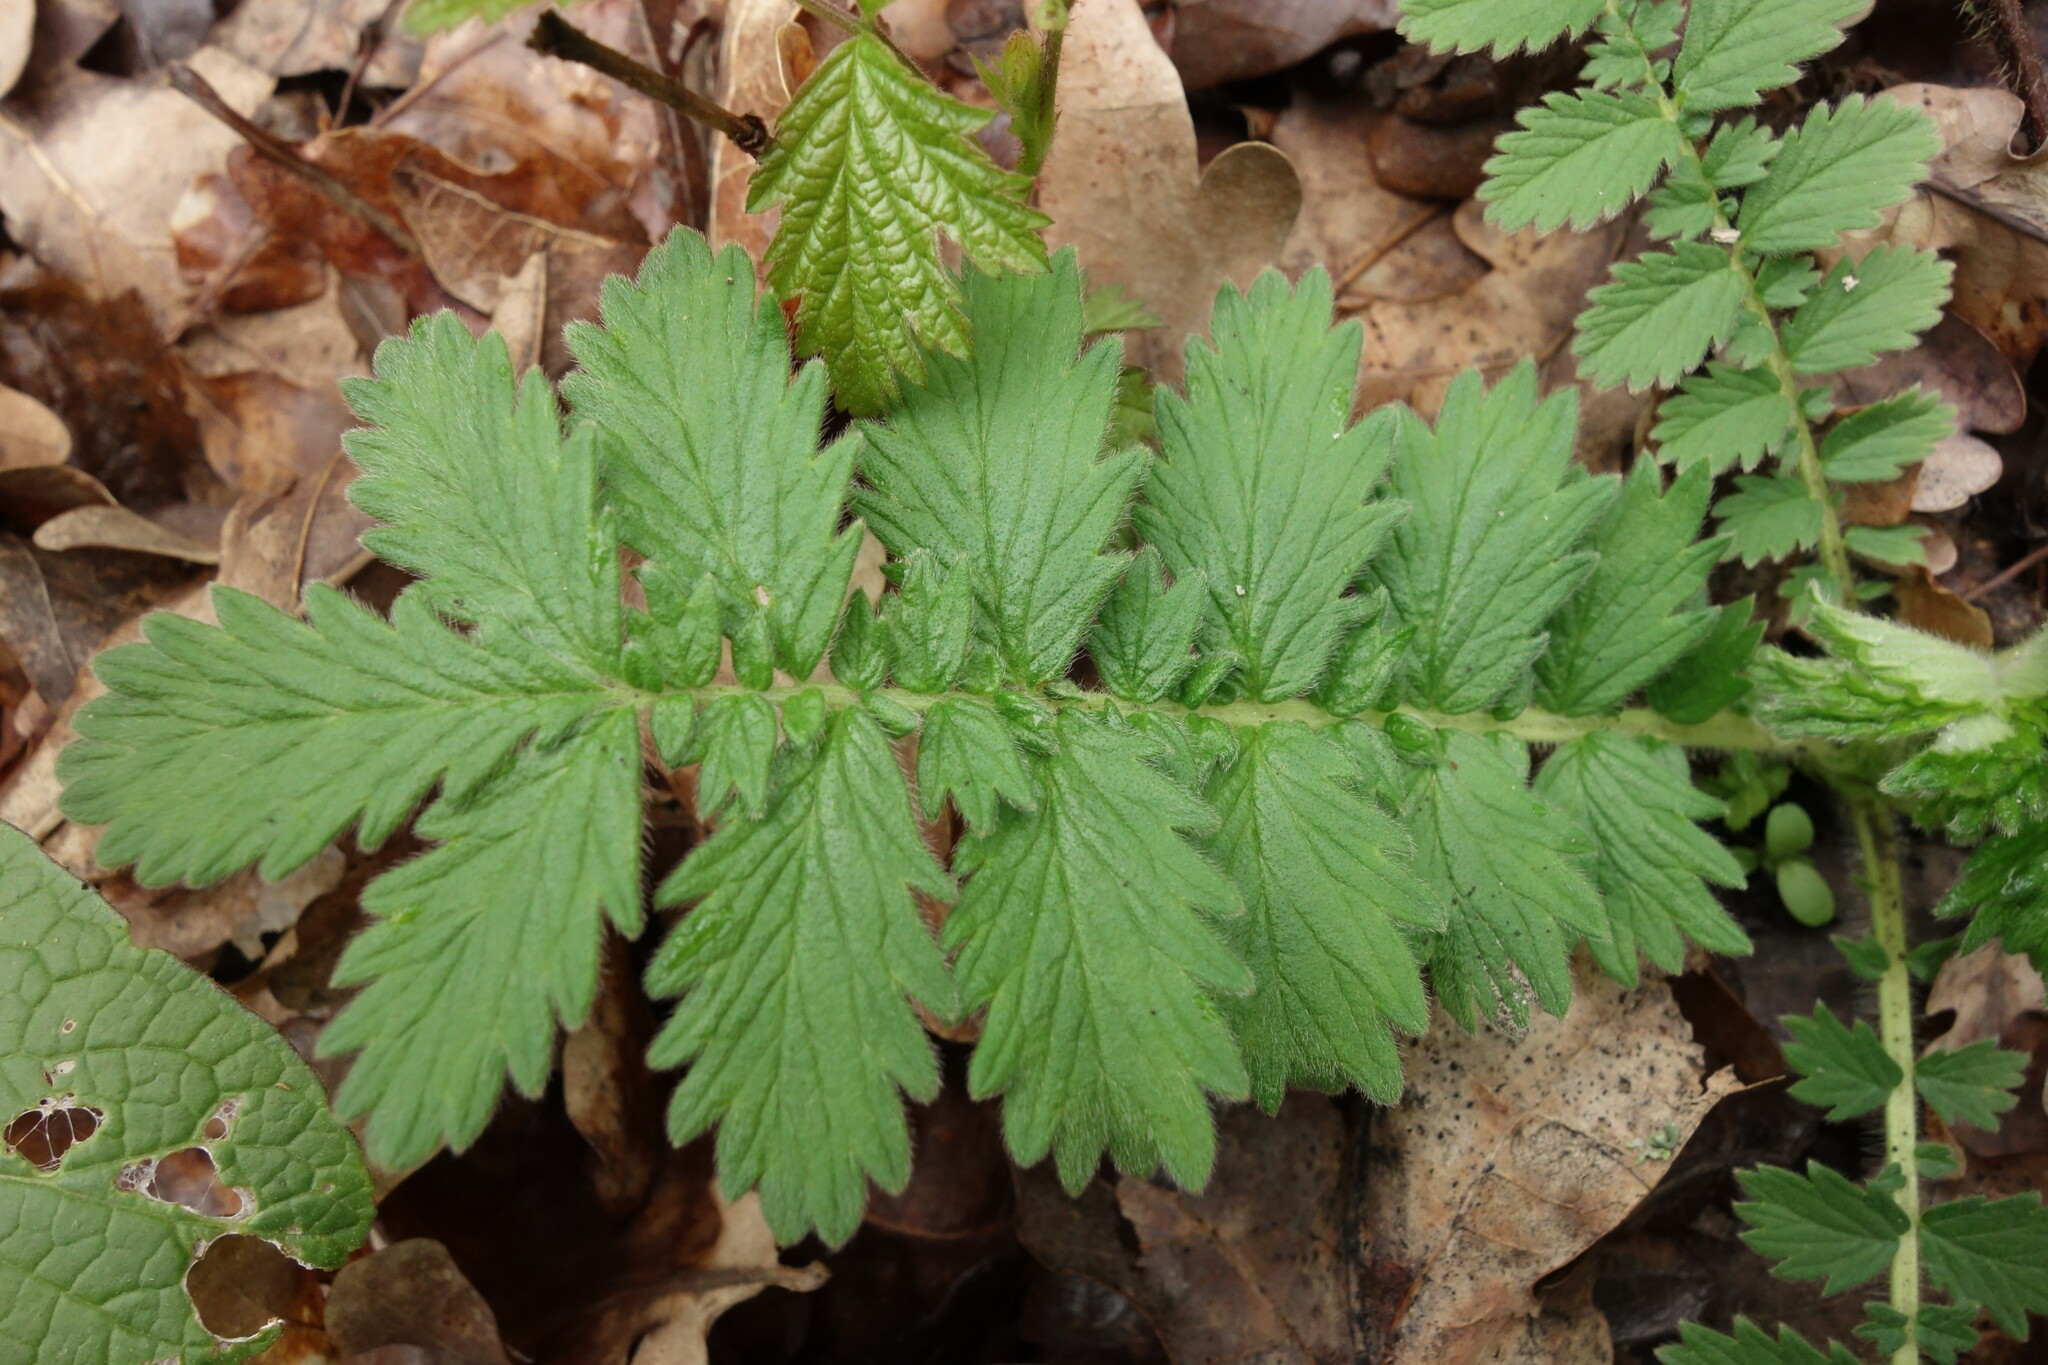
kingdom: Plantae
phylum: Tracheophyta
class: Magnoliopsida
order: Rosales
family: Rosaceae
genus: Agrimonia
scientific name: Agrimonia eupatoria
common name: Agrimony
